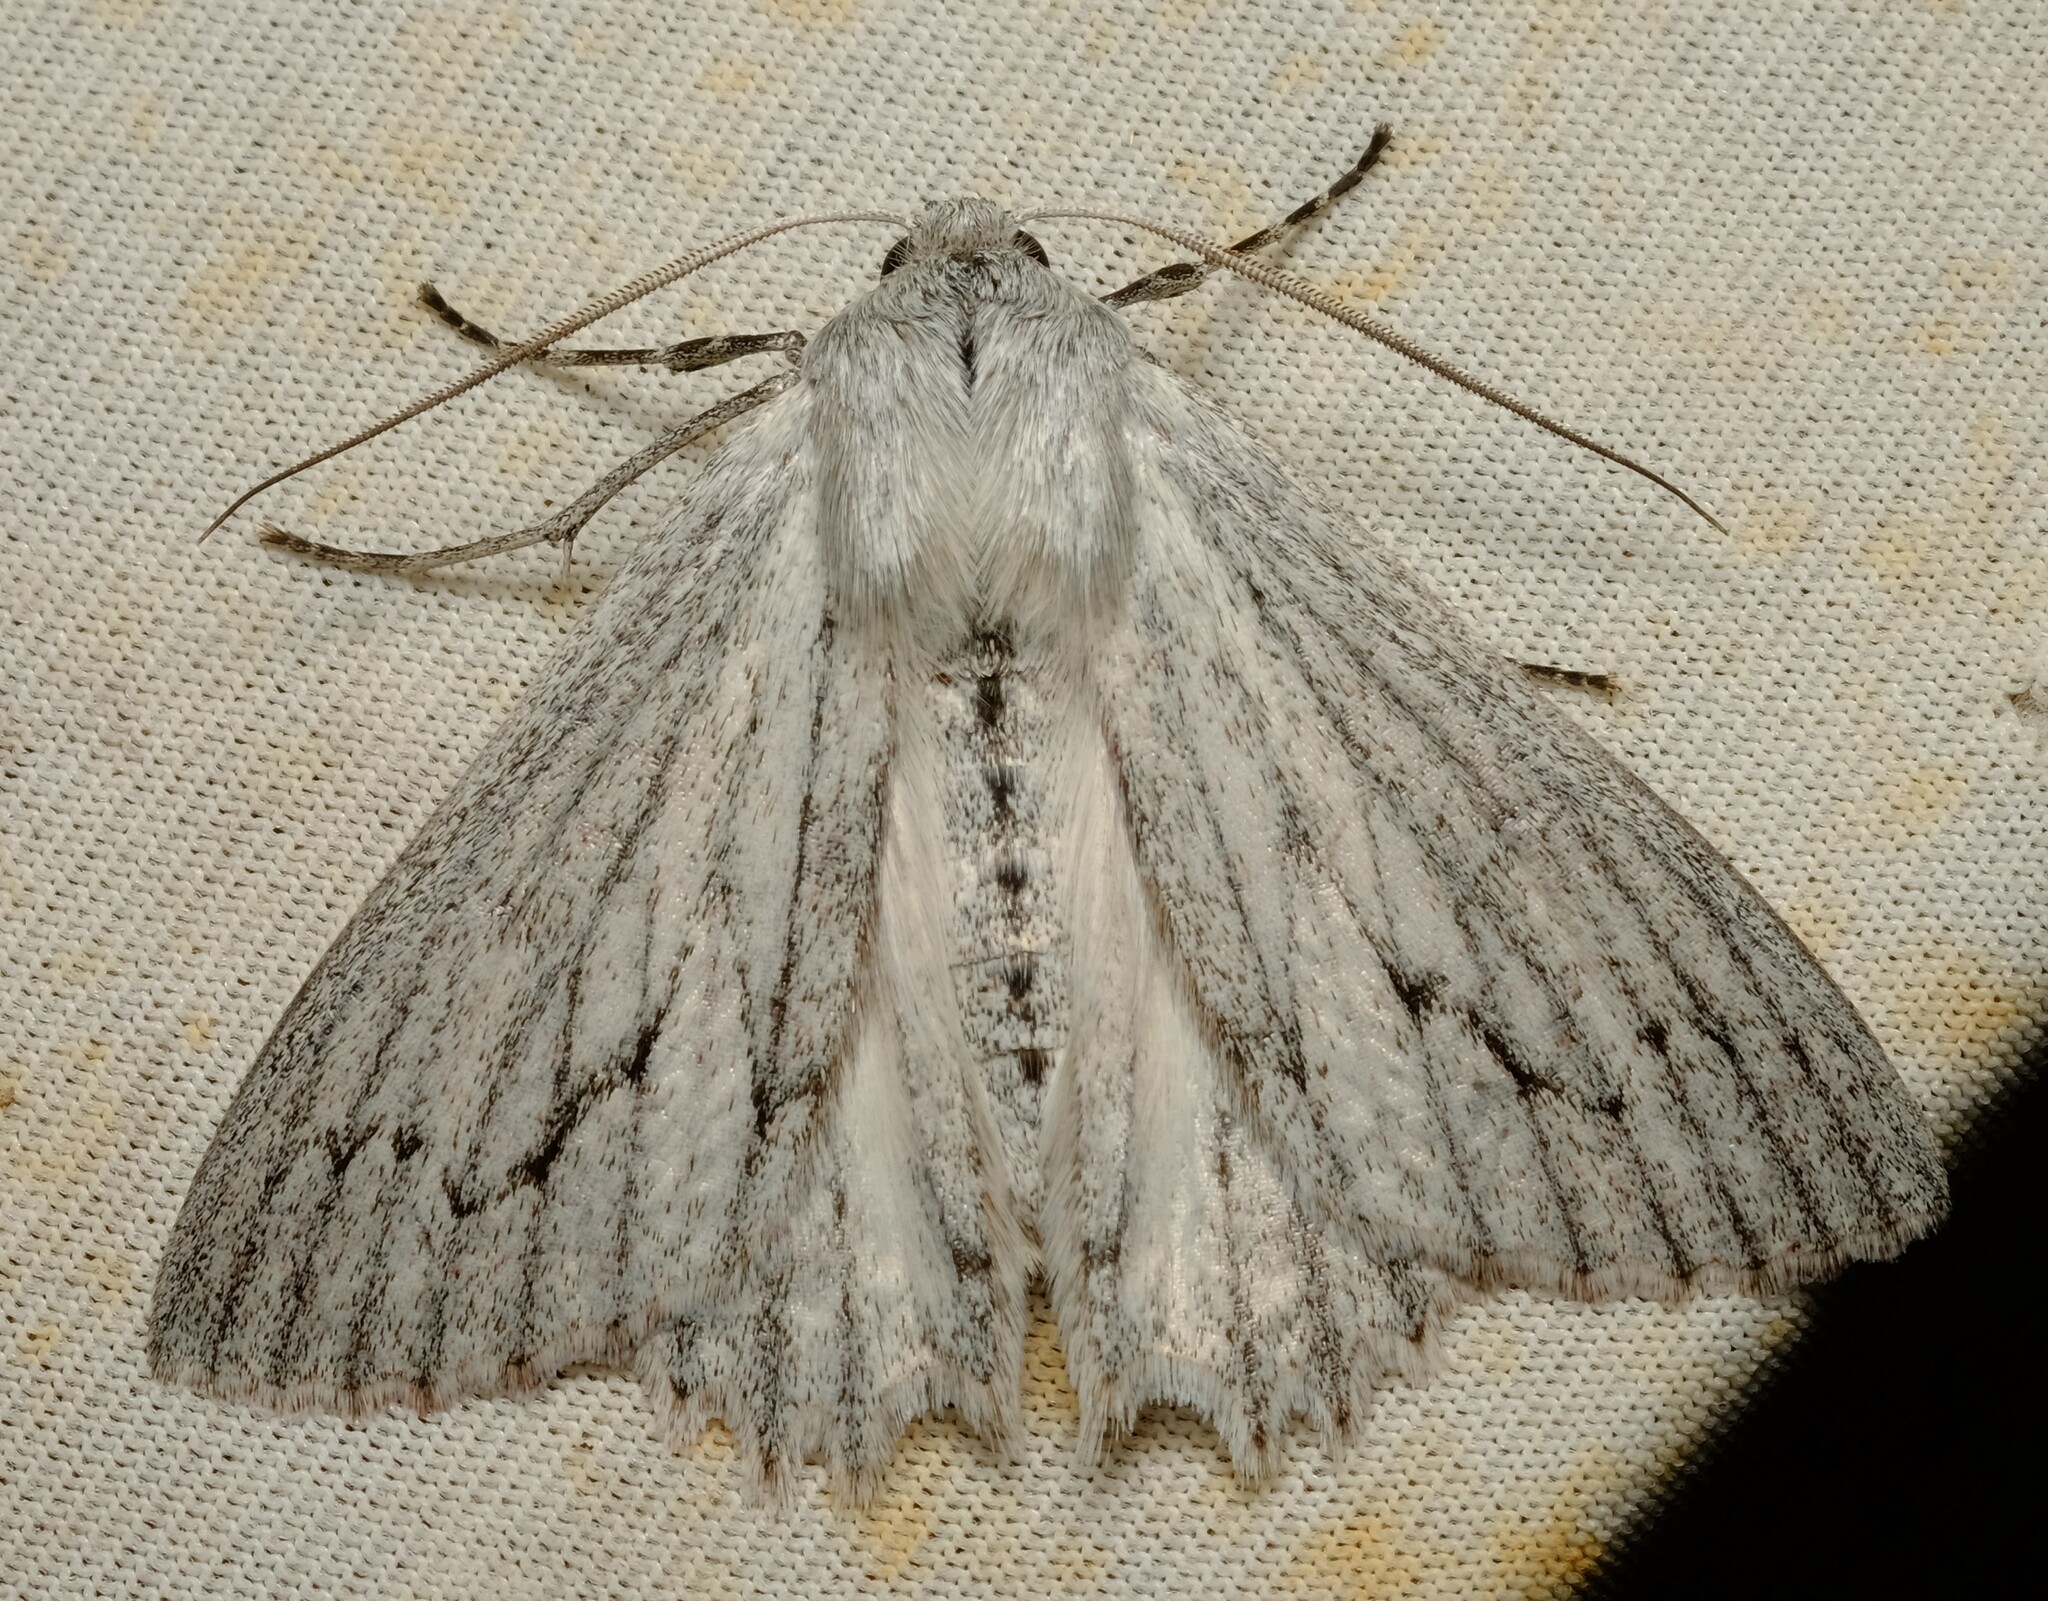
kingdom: Animalia
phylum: Arthropoda
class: Insecta
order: Lepidoptera
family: Geometridae
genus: Paraterpna
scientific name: Paraterpna harrisoni
